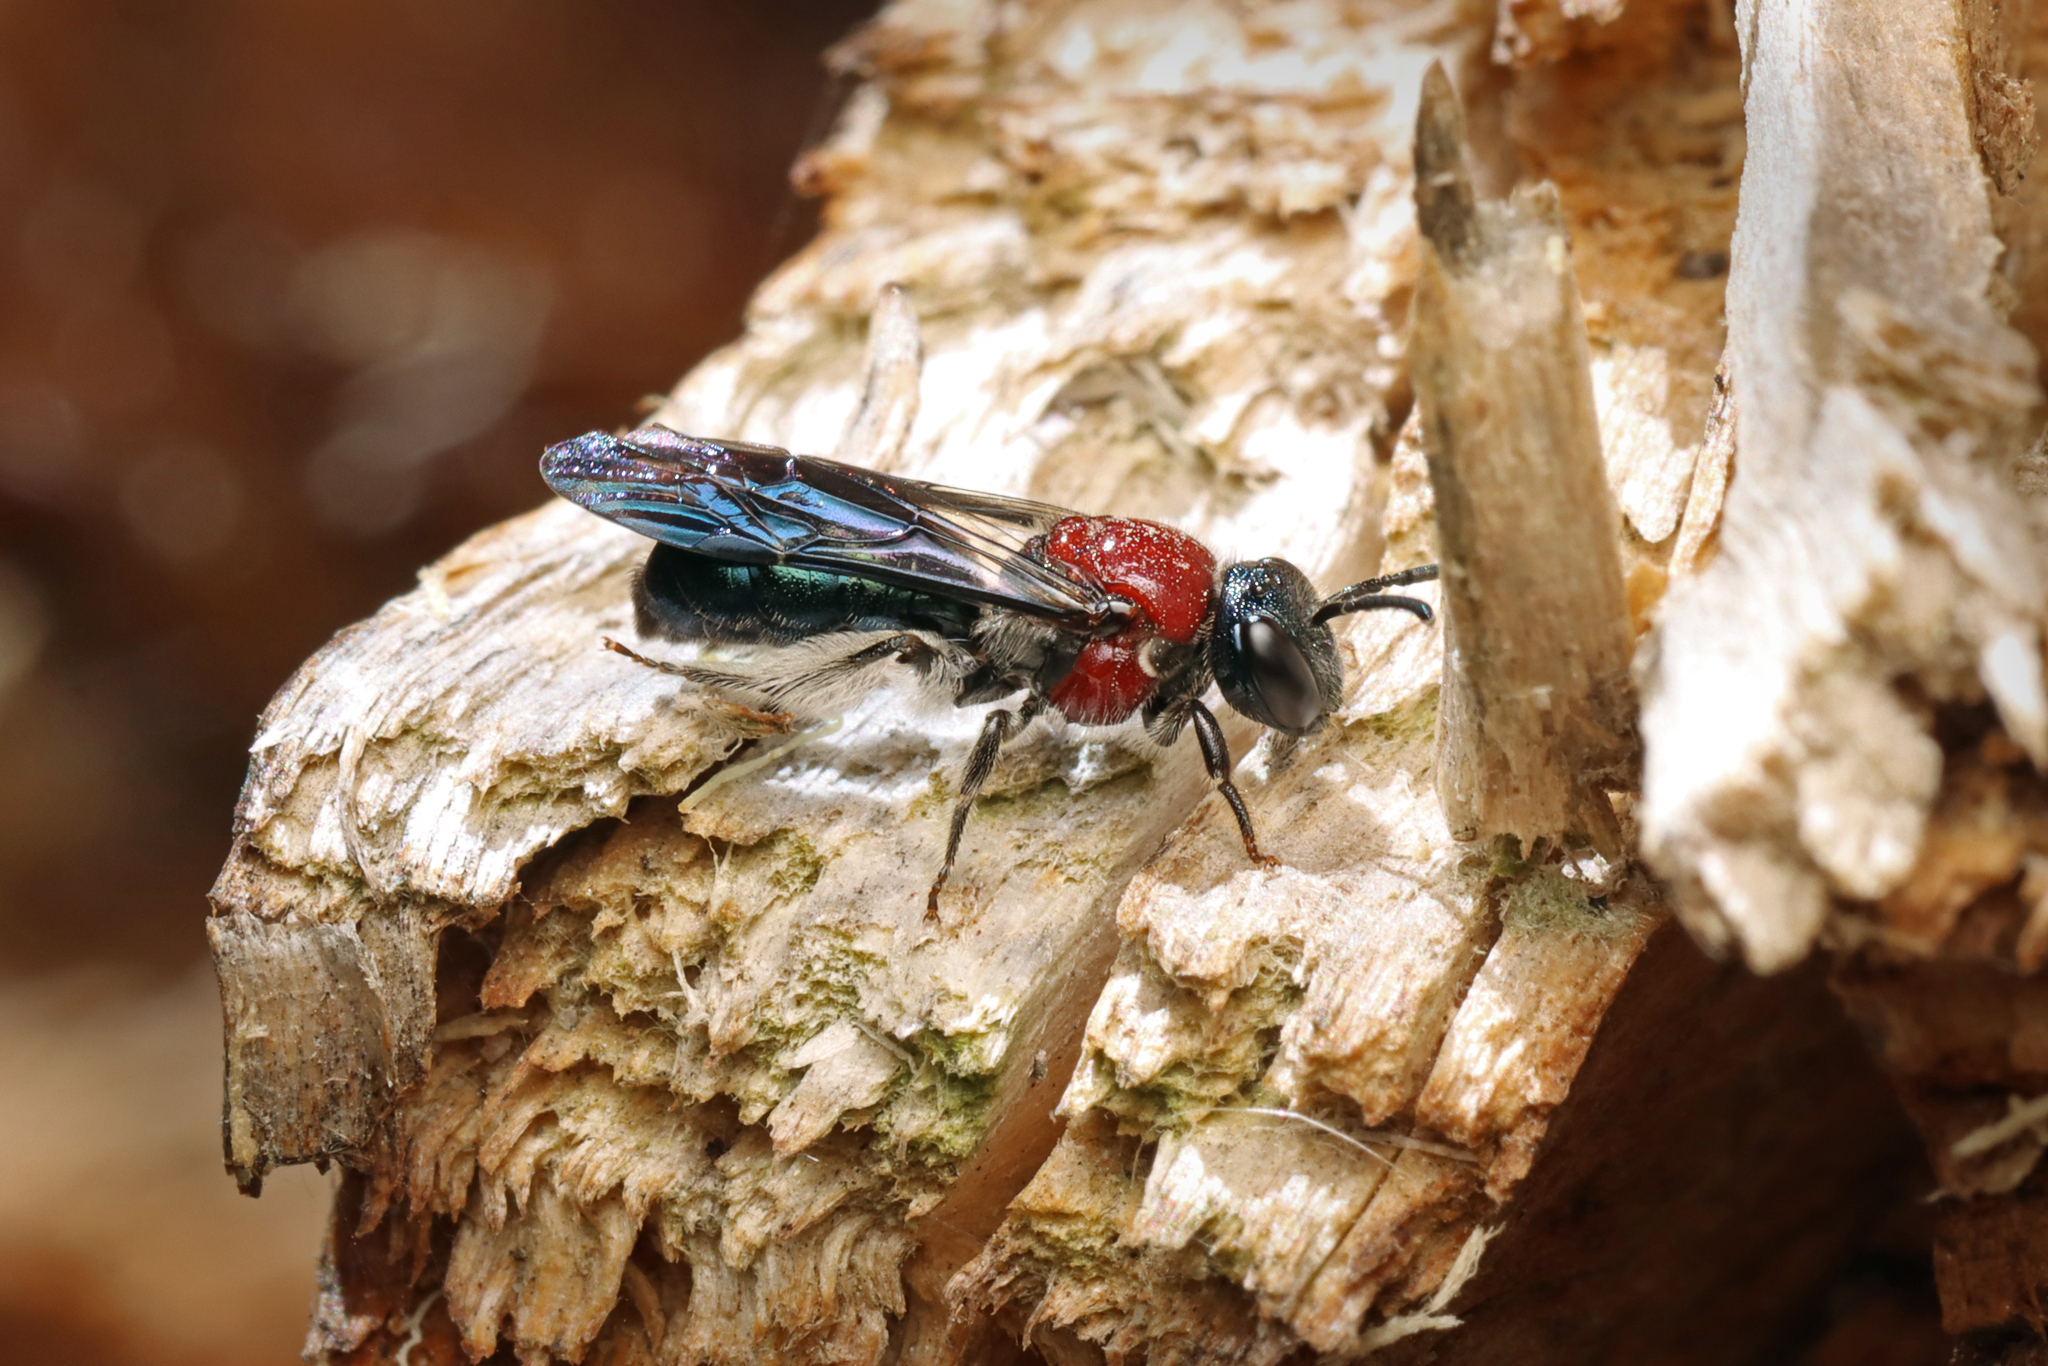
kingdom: Animalia
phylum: Arthropoda
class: Insecta
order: Hymenoptera
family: Colletidae
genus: Callomelitta
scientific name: Callomelitta picta
